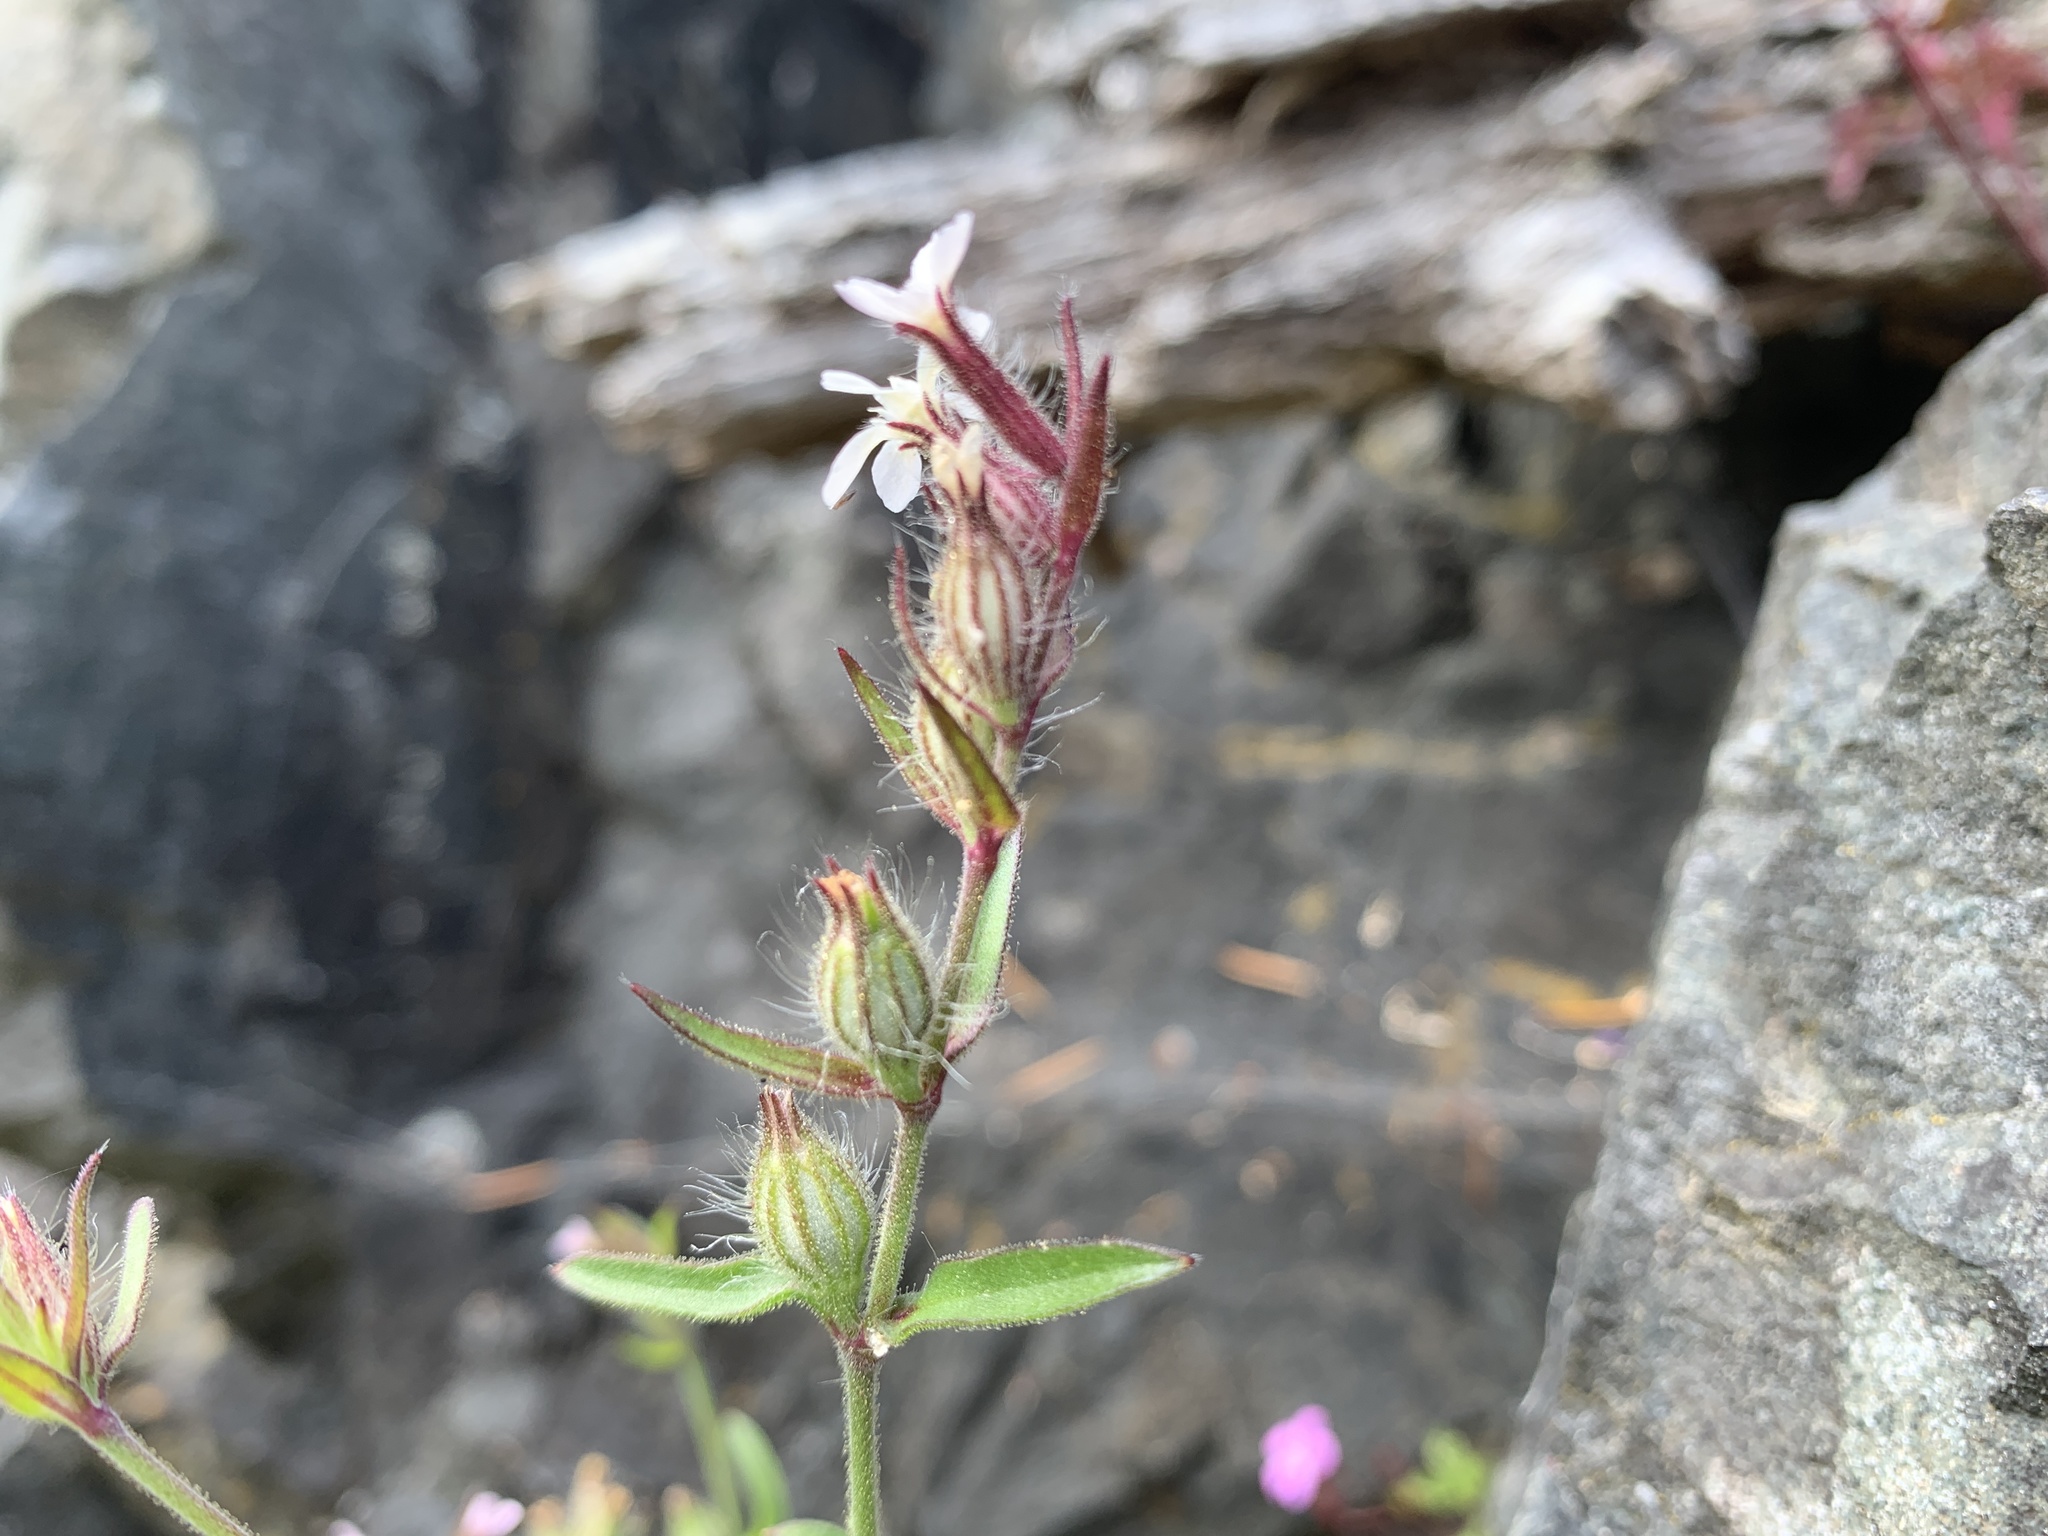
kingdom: Plantae
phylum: Tracheophyta
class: Magnoliopsida
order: Caryophyllales
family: Caryophyllaceae
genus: Silene
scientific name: Silene gallica
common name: Small-flowered catchfly
